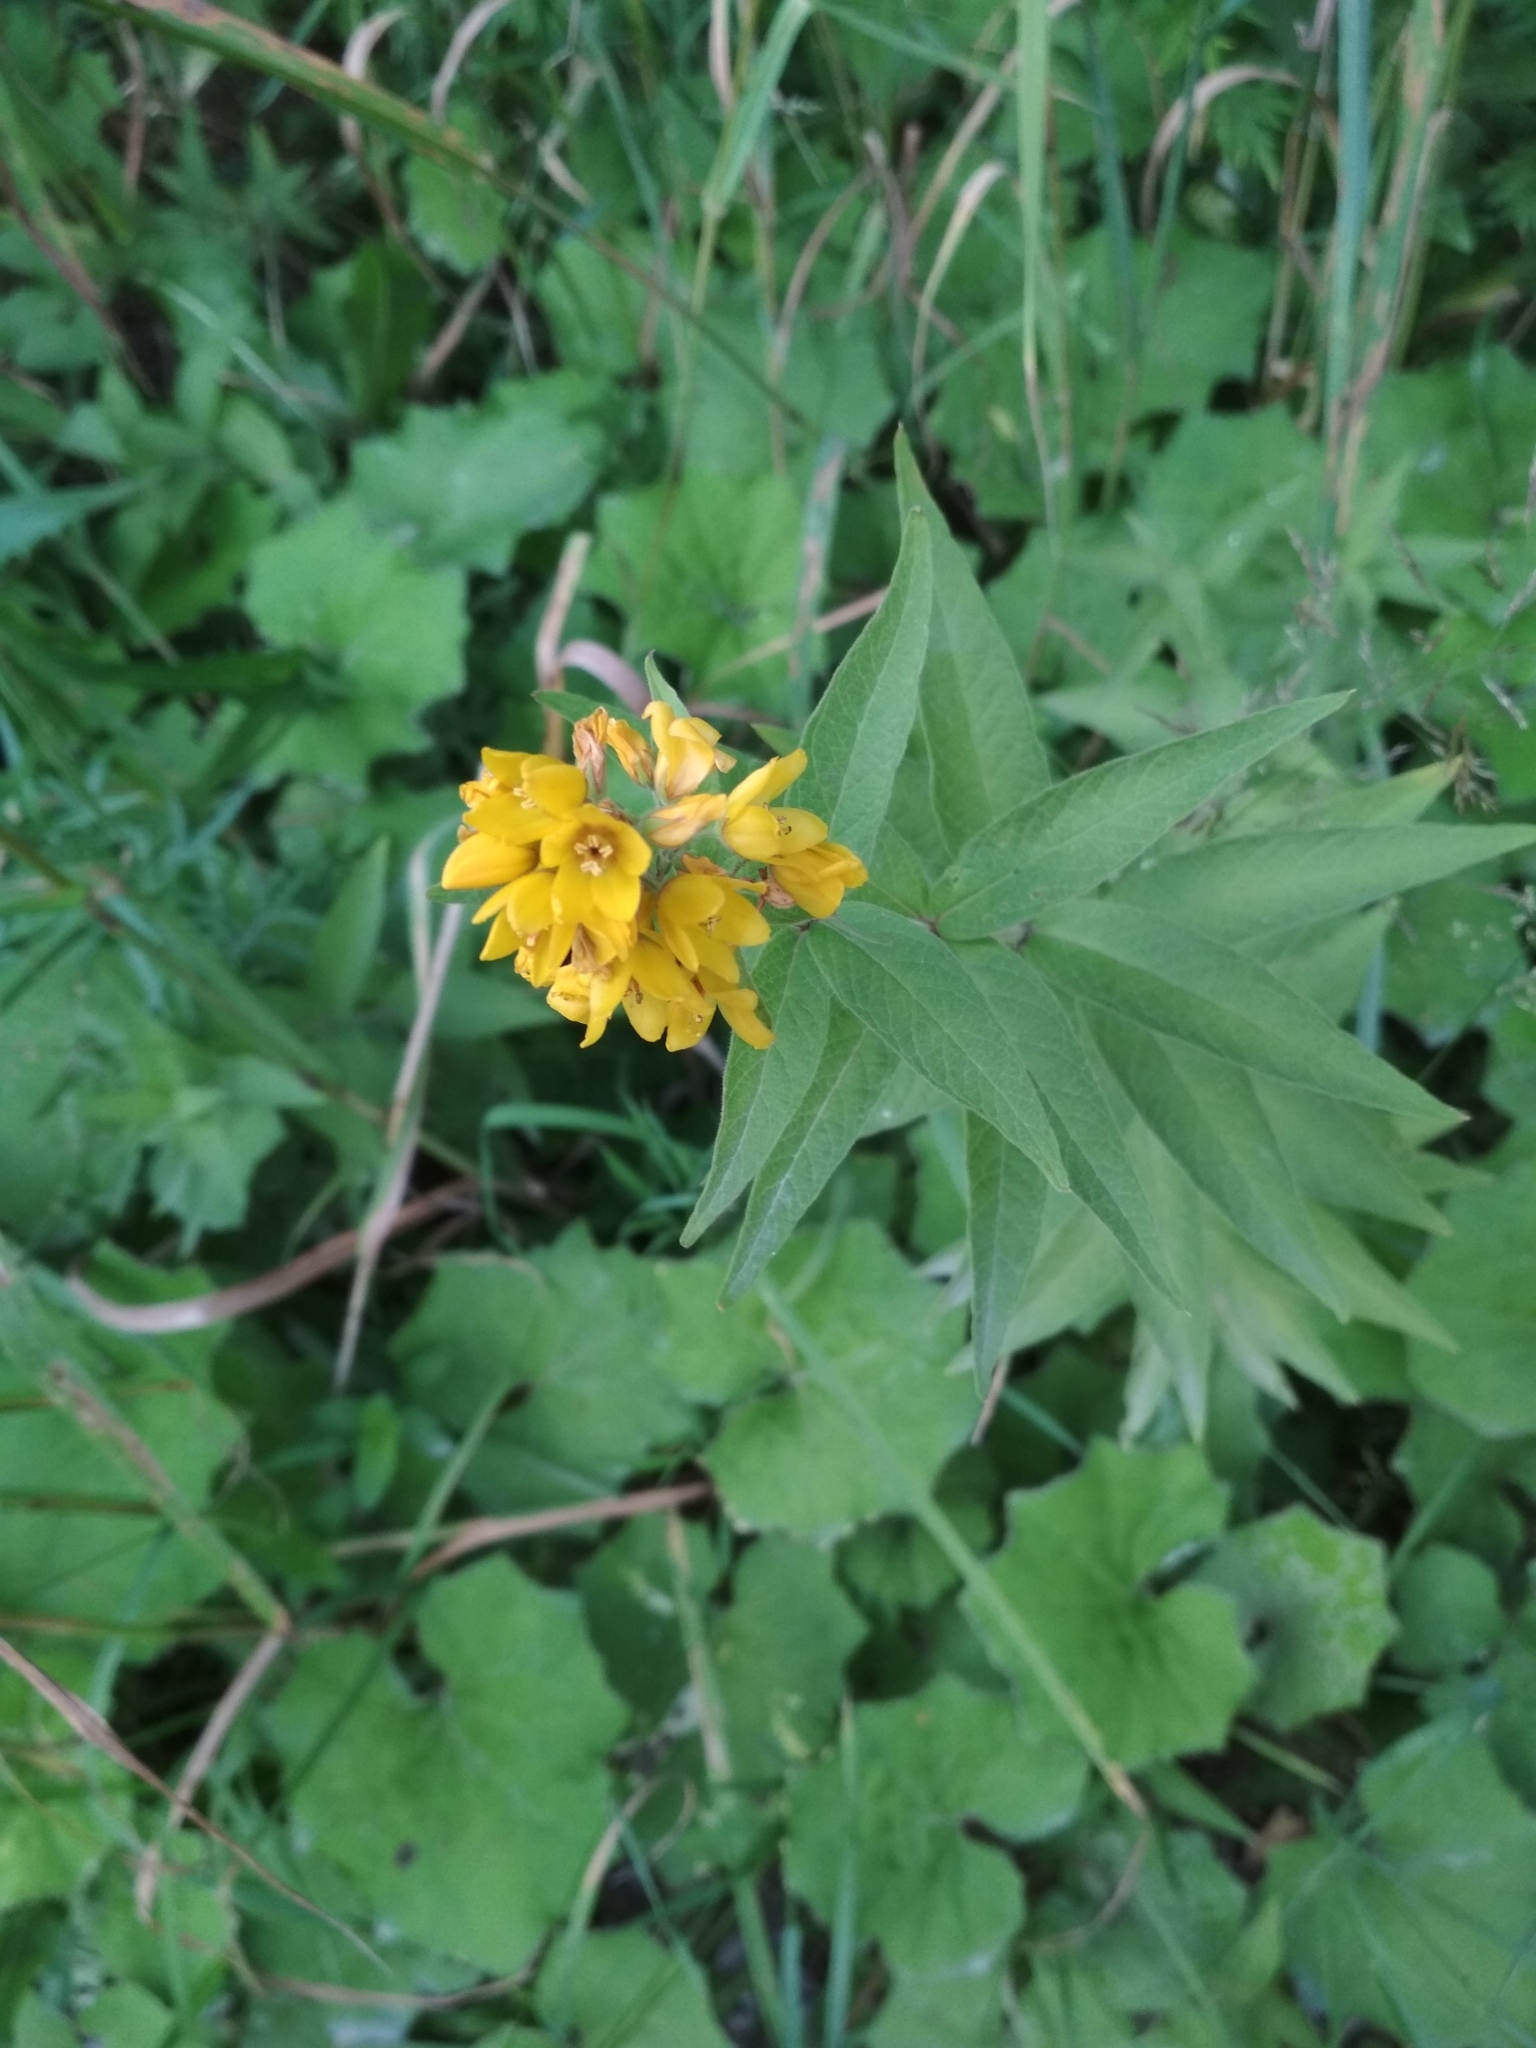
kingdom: Plantae
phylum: Tracheophyta
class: Magnoliopsida
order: Ericales
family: Primulaceae
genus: Lysimachia
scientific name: Lysimachia vulgaris
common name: Yellow loosestrife
